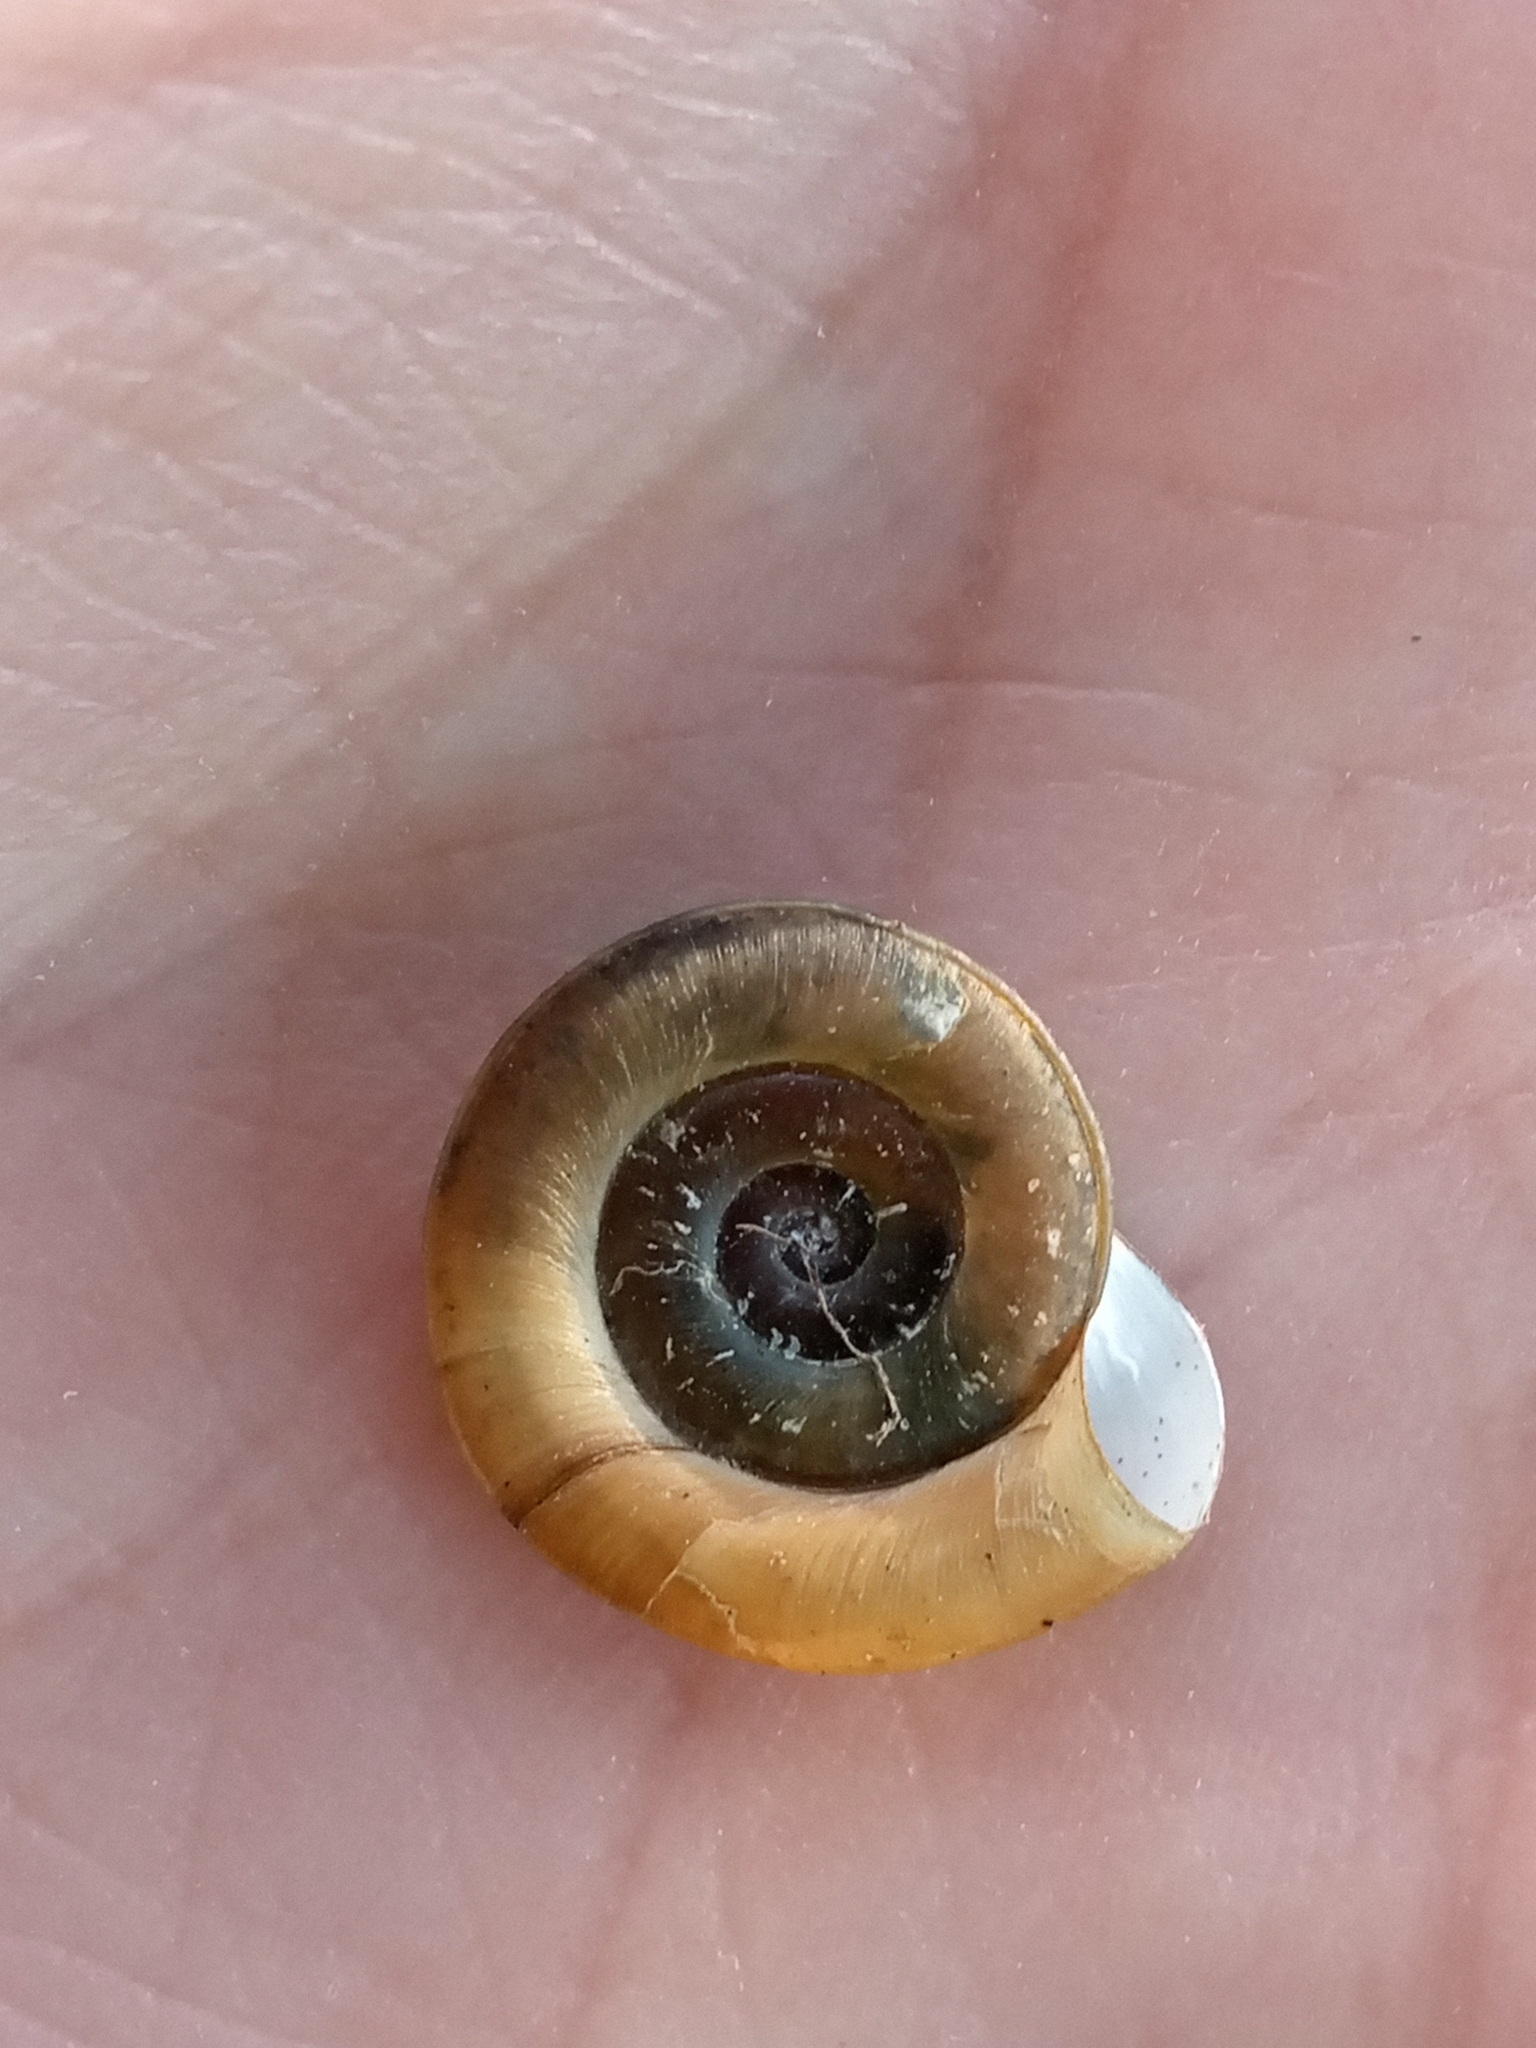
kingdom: Animalia
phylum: Mollusca
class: Gastropoda
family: Planorbidae
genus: Planorbis
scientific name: Planorbis planorbis
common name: Margined ramshorn
